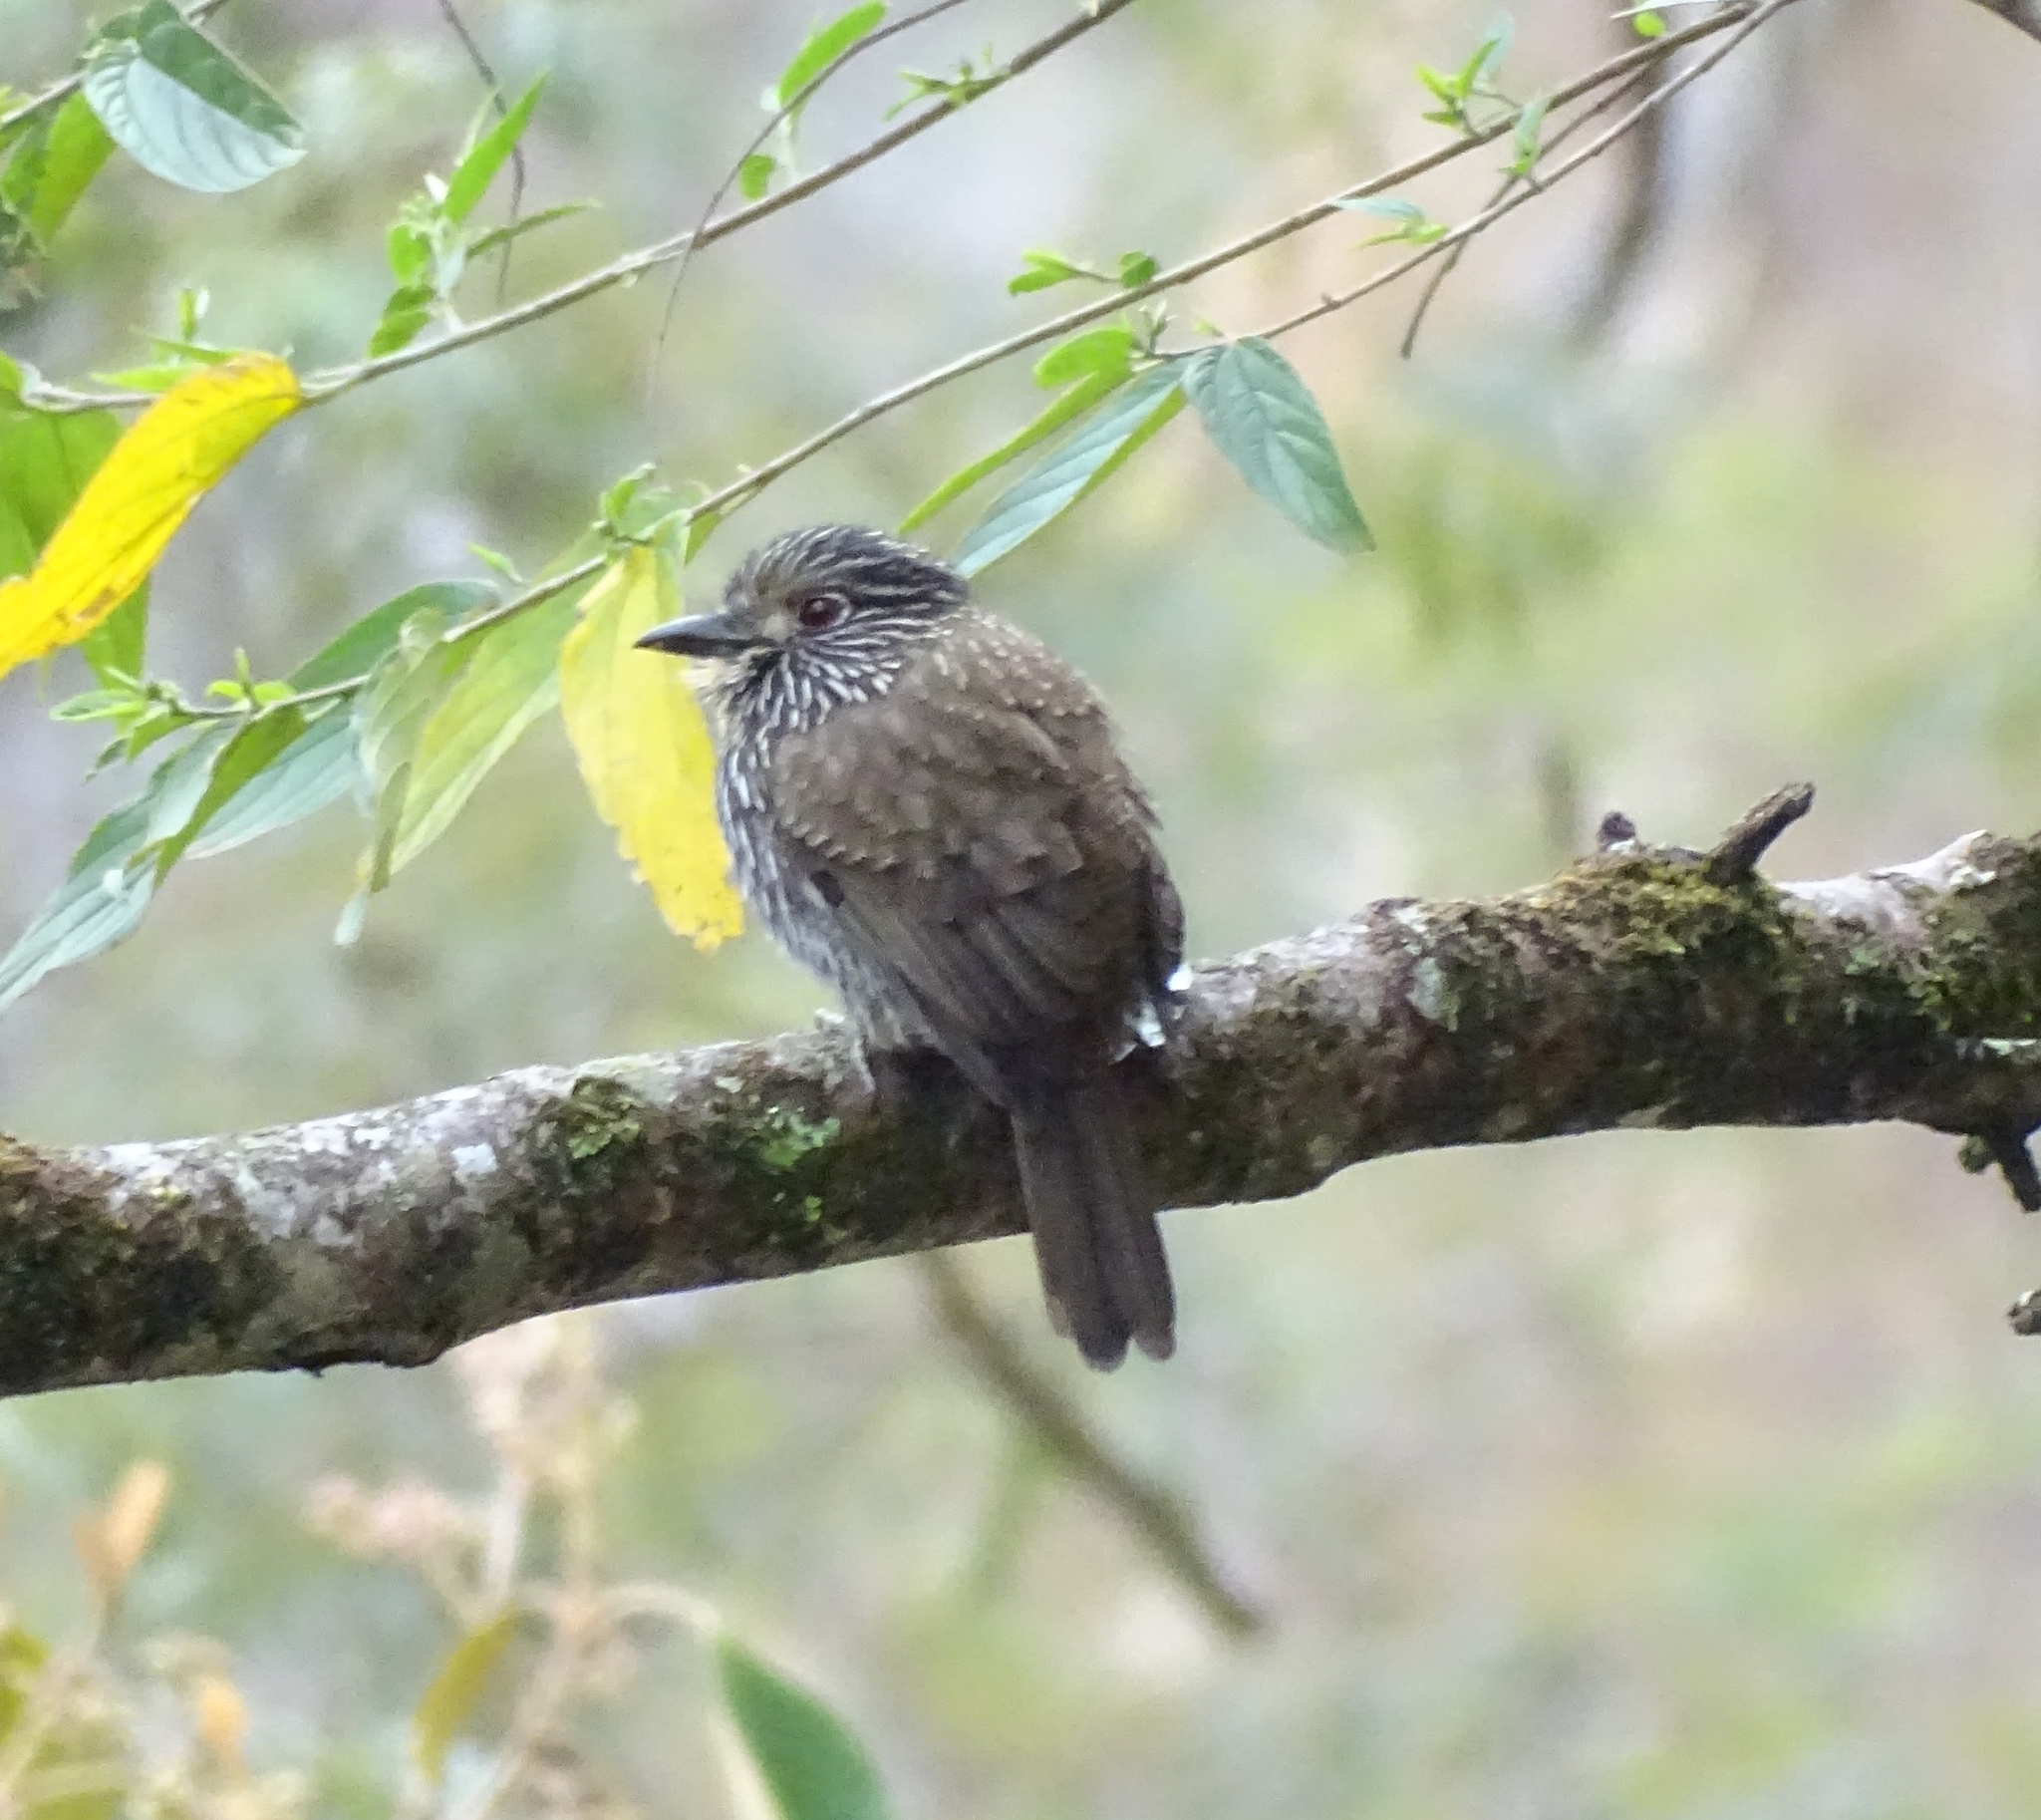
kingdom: Animalia
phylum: Chordata
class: Aves
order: Piciformes
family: Bucconidae
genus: Malacoptila
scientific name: Malacoptila fulvogularis
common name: Black-streaked puffbird
